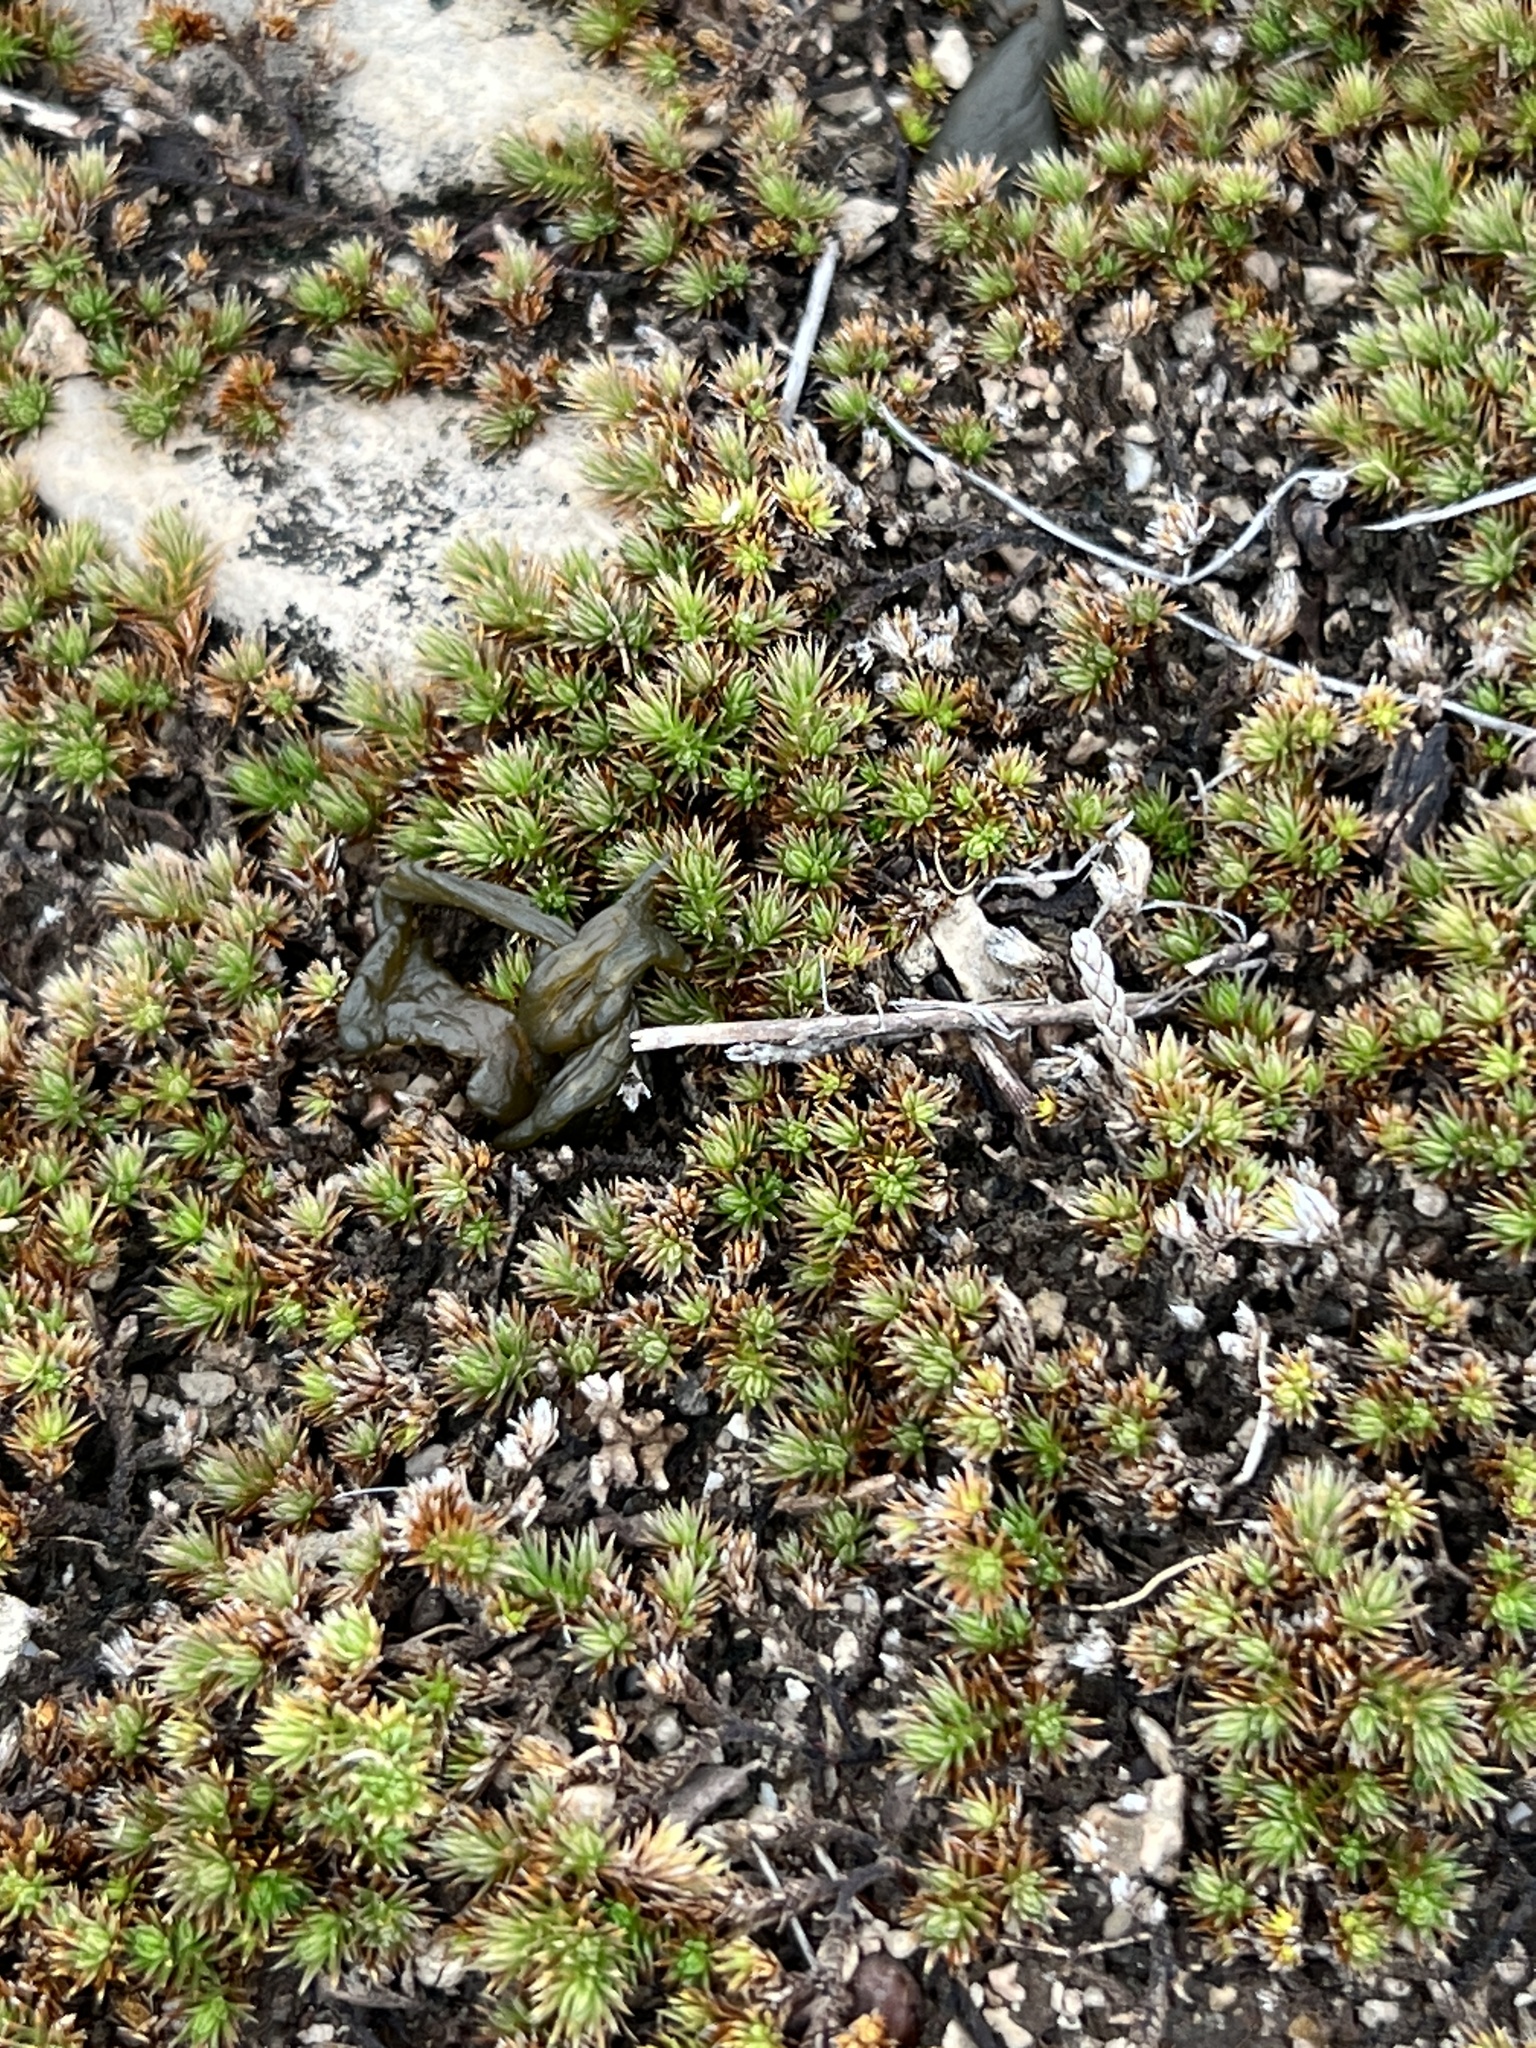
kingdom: Plantae
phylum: Tracheophyta
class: Lycopodiopsida
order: Selaginellales
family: Selaginellaceae
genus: Selaginella
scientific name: Selaginella wrightii
